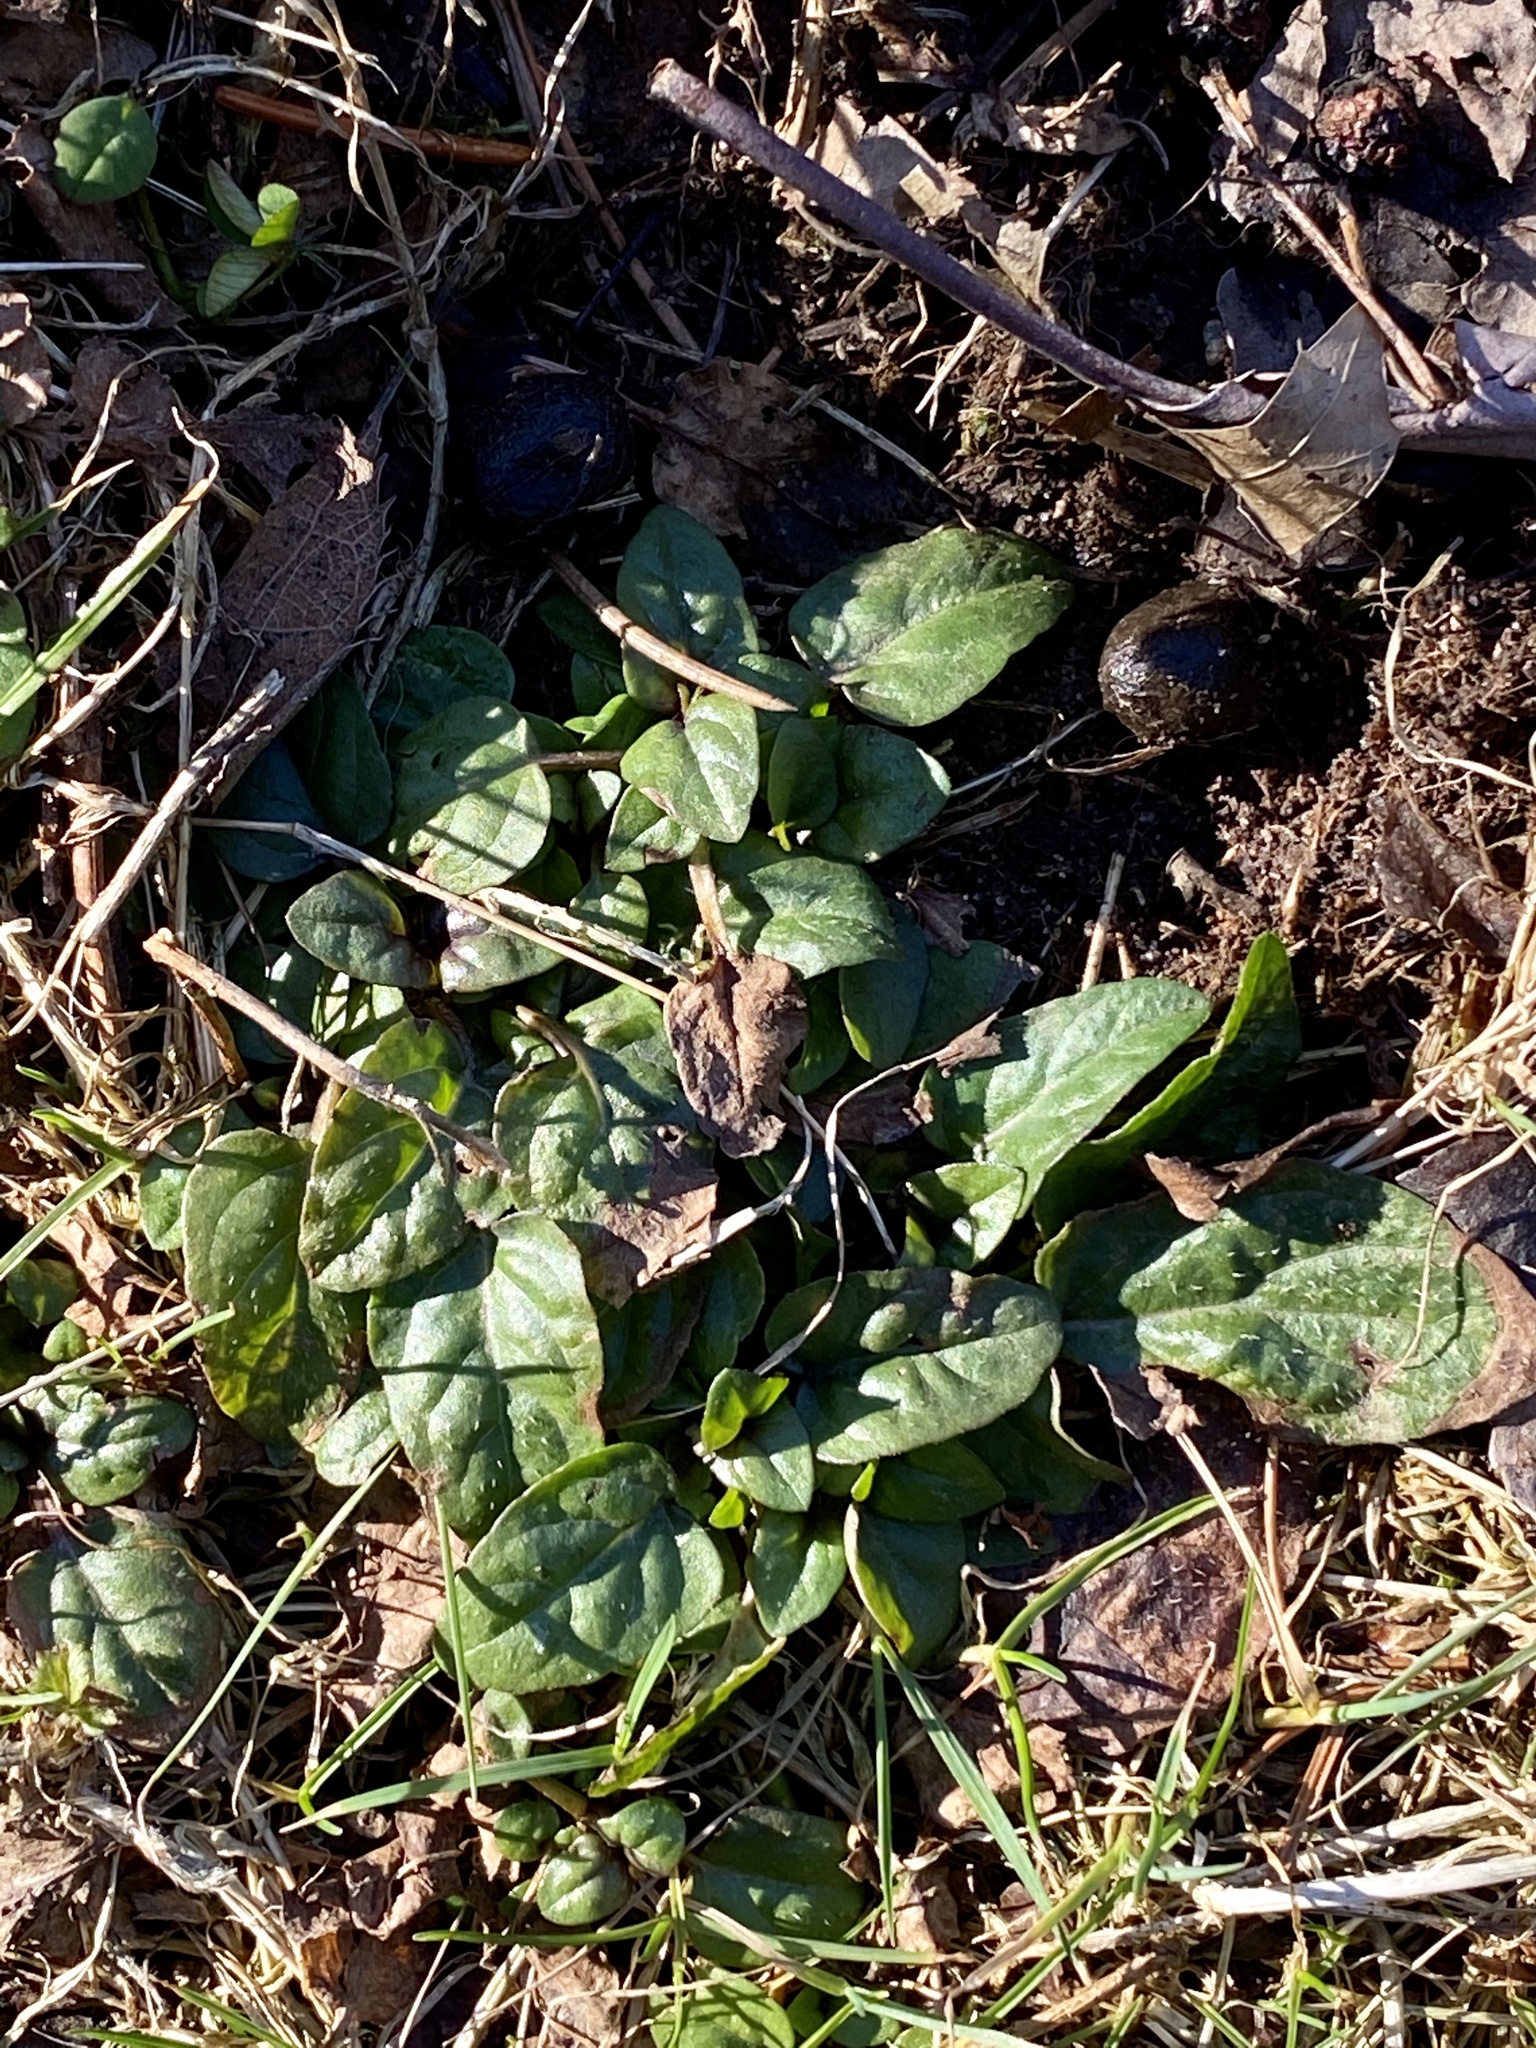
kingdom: Plantae
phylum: Tracheophyta
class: Magnoliopsida
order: Lamiales
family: Lamiaceae
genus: Prunella
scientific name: Prunella vulgaris
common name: Heal-all
